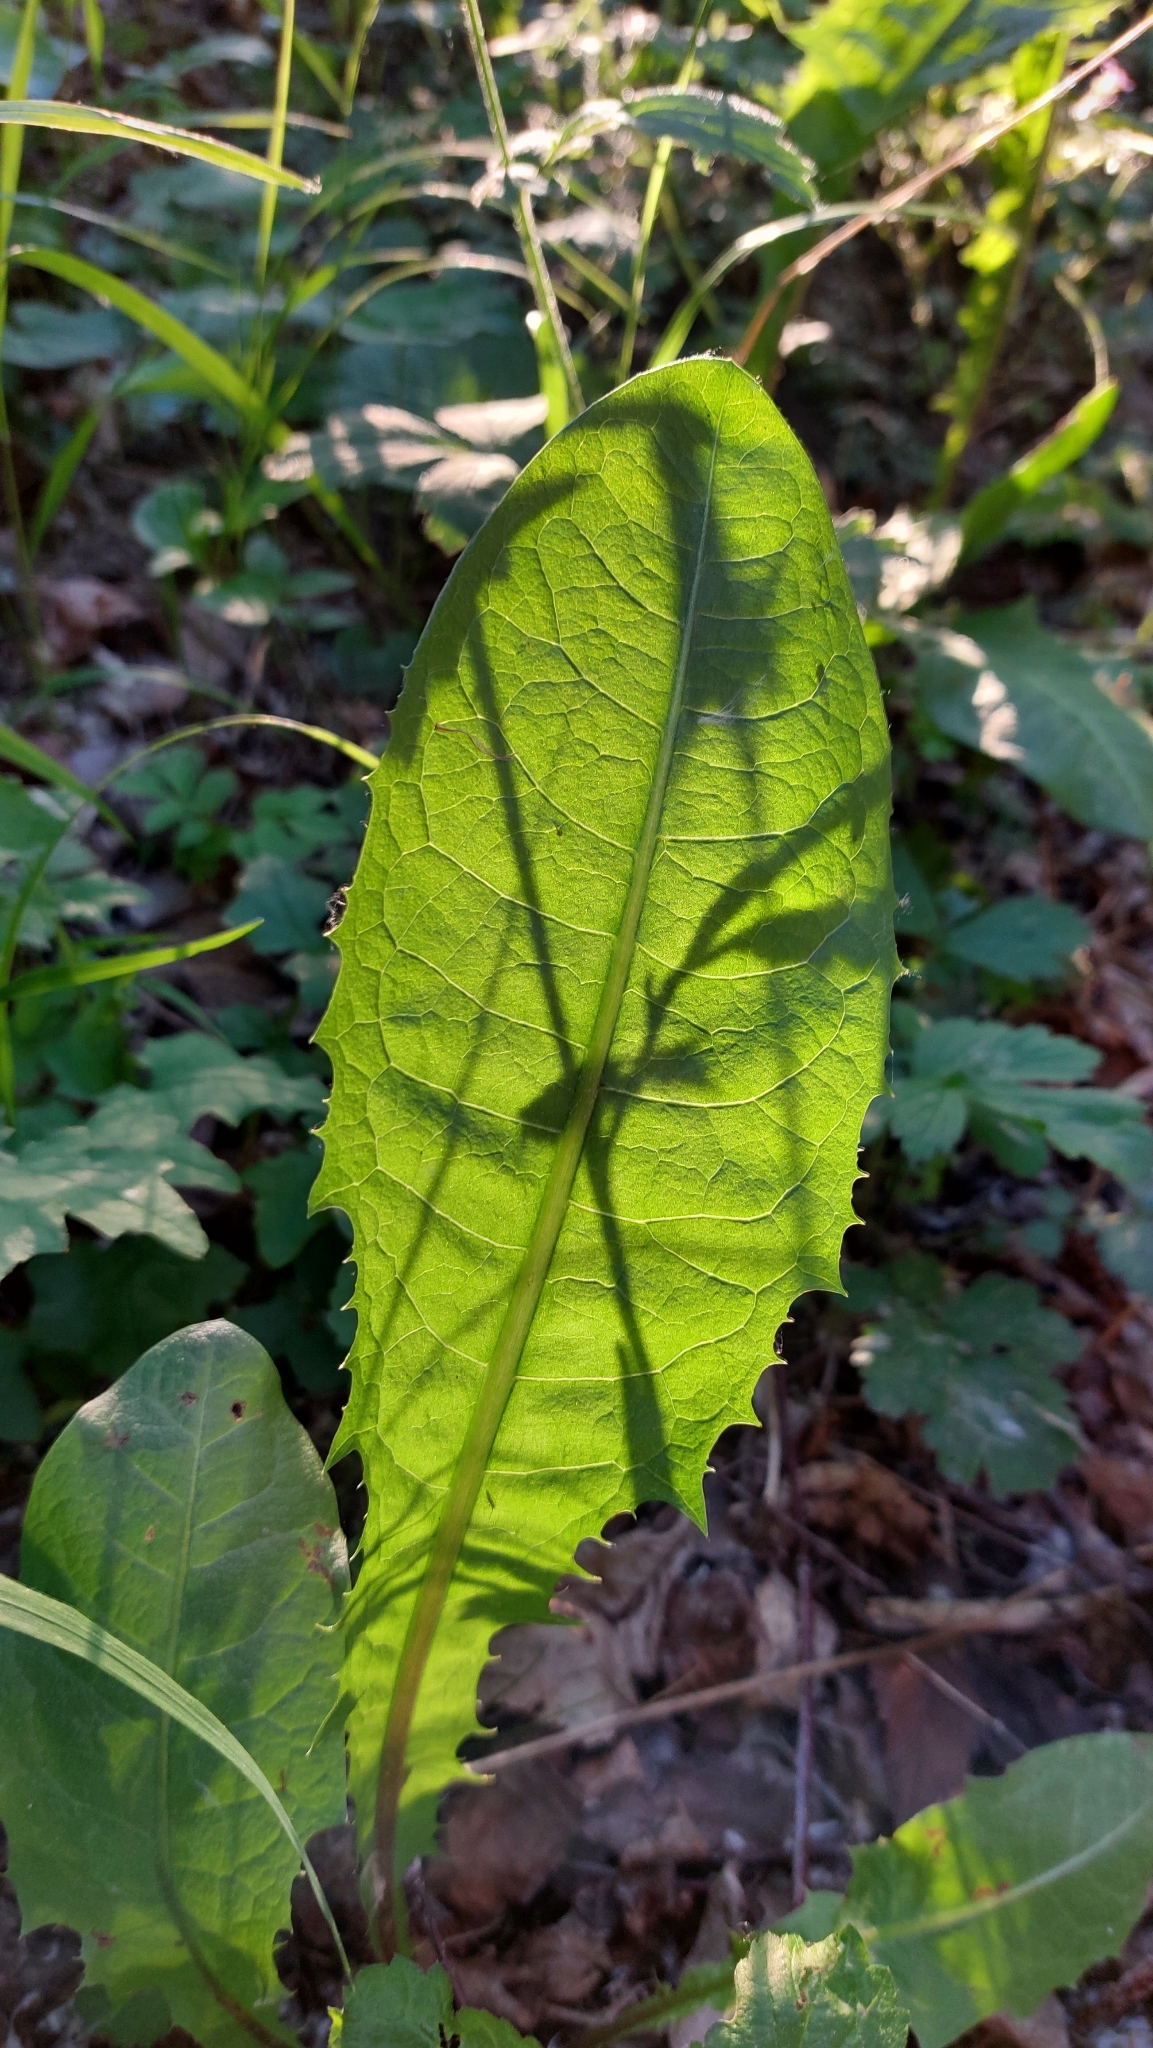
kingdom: Plantae
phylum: Tracheophyta
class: Magnoliopsida
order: Asterales
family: Asteraceae
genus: Taraxacum
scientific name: Taraxacum
